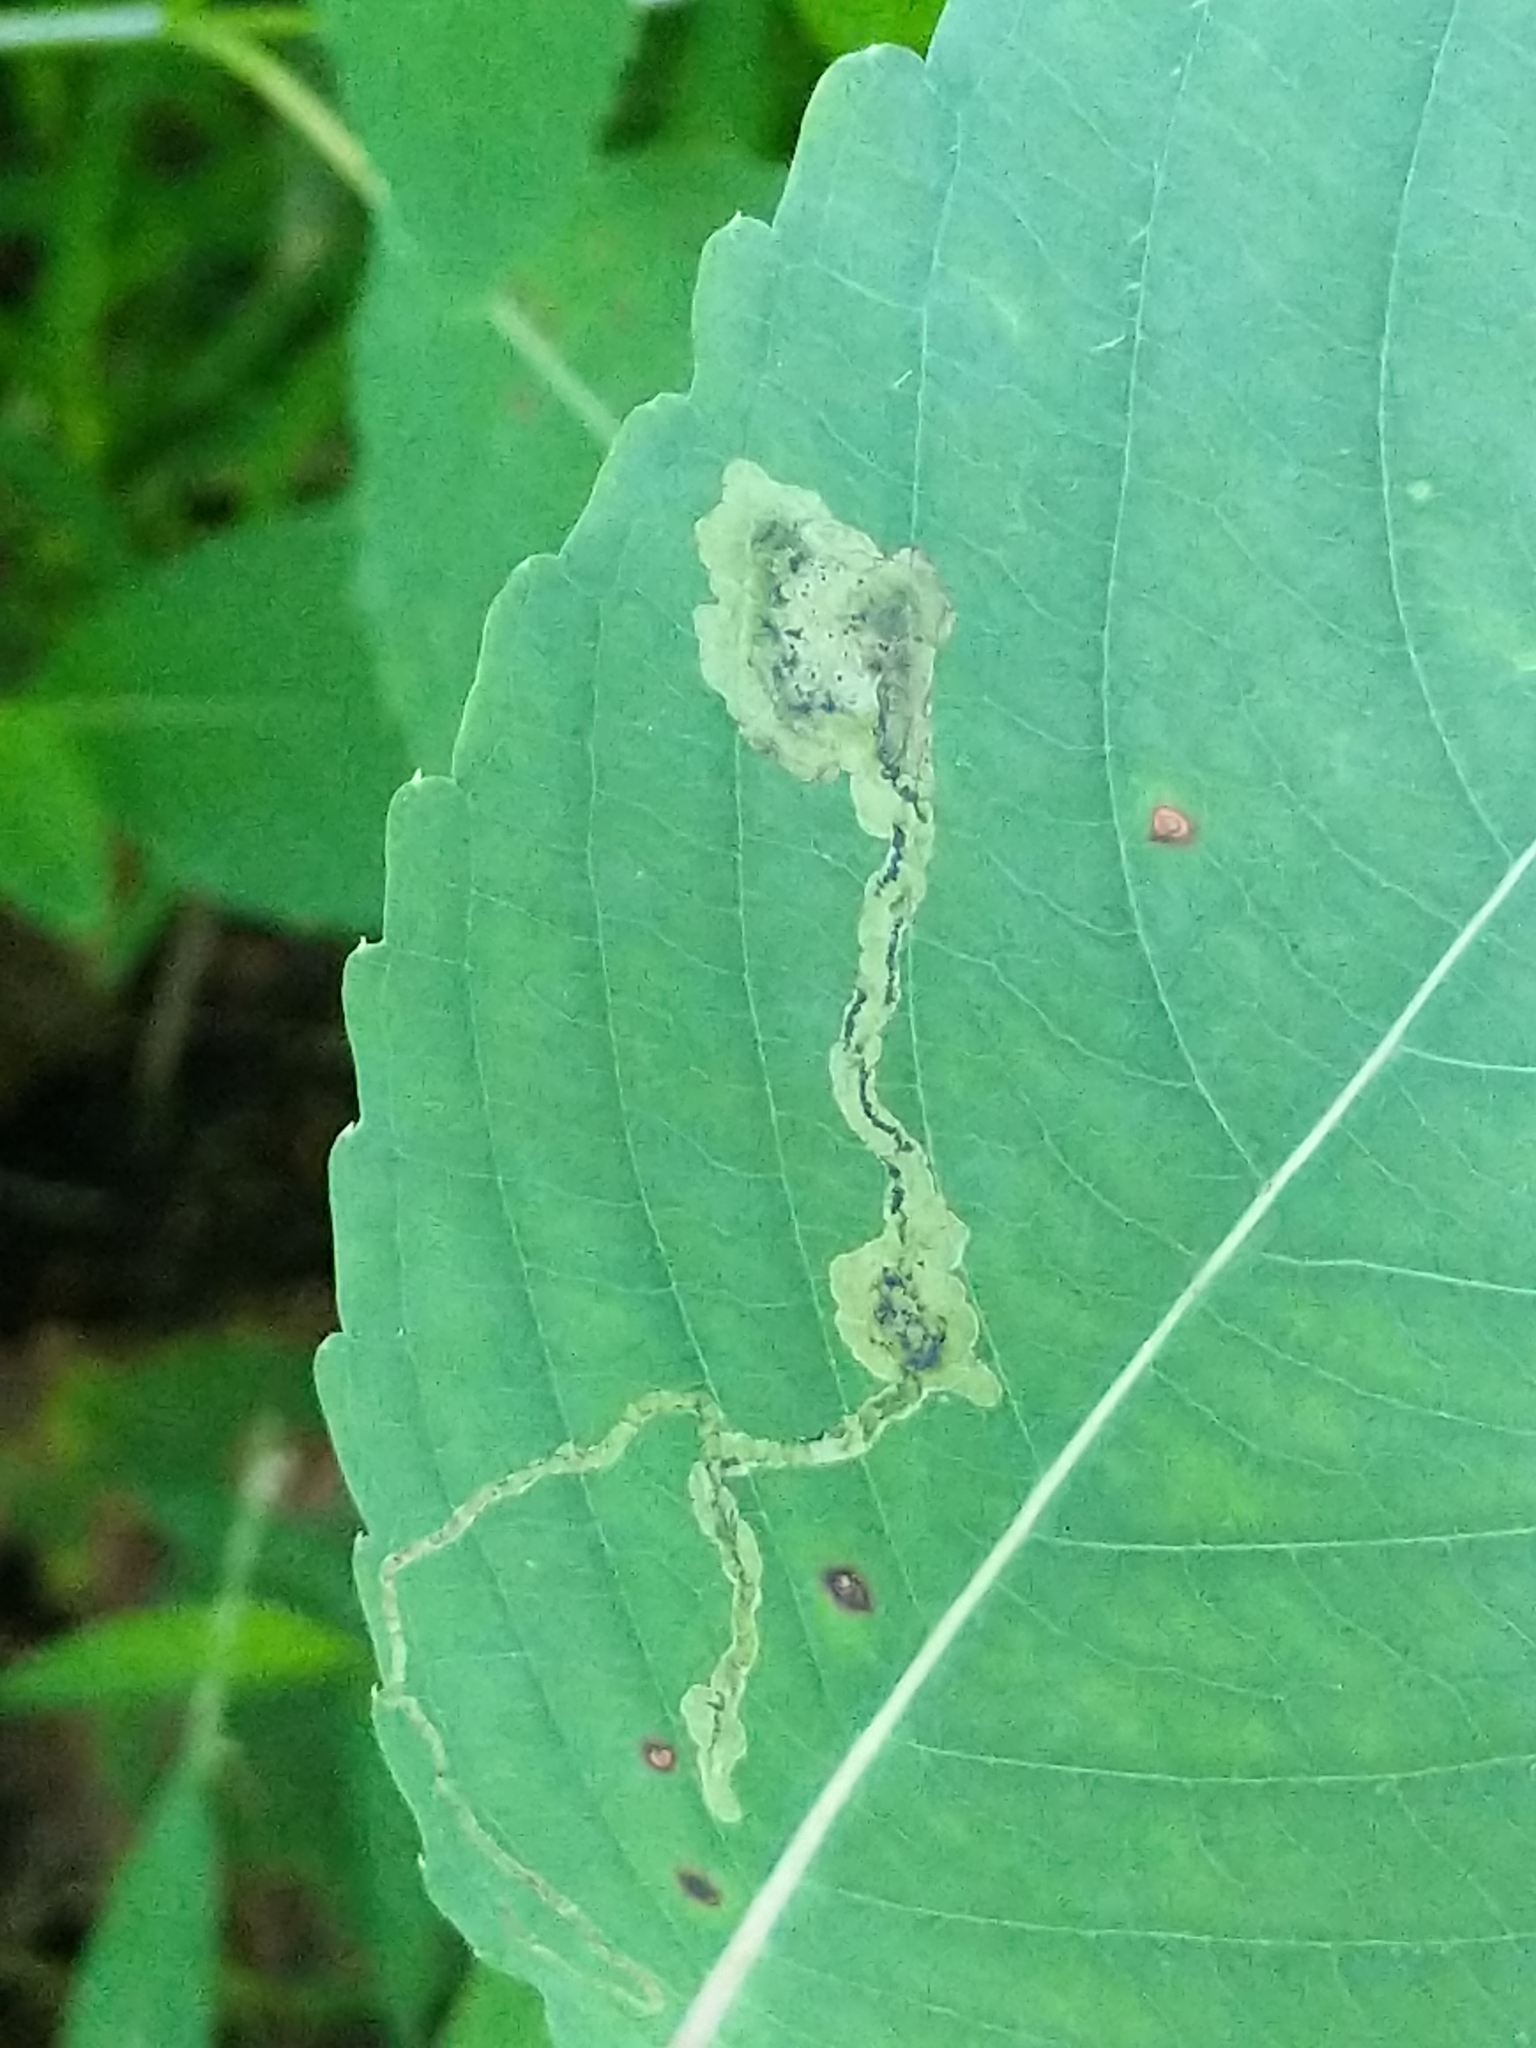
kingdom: Animalia
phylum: Arthropoda
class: Insecta
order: Diptera
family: Agromyzidae
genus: Phytoliriomyza
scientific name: Phytoliriomyza melampyga
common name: Jewelweed leaf-miner fly
